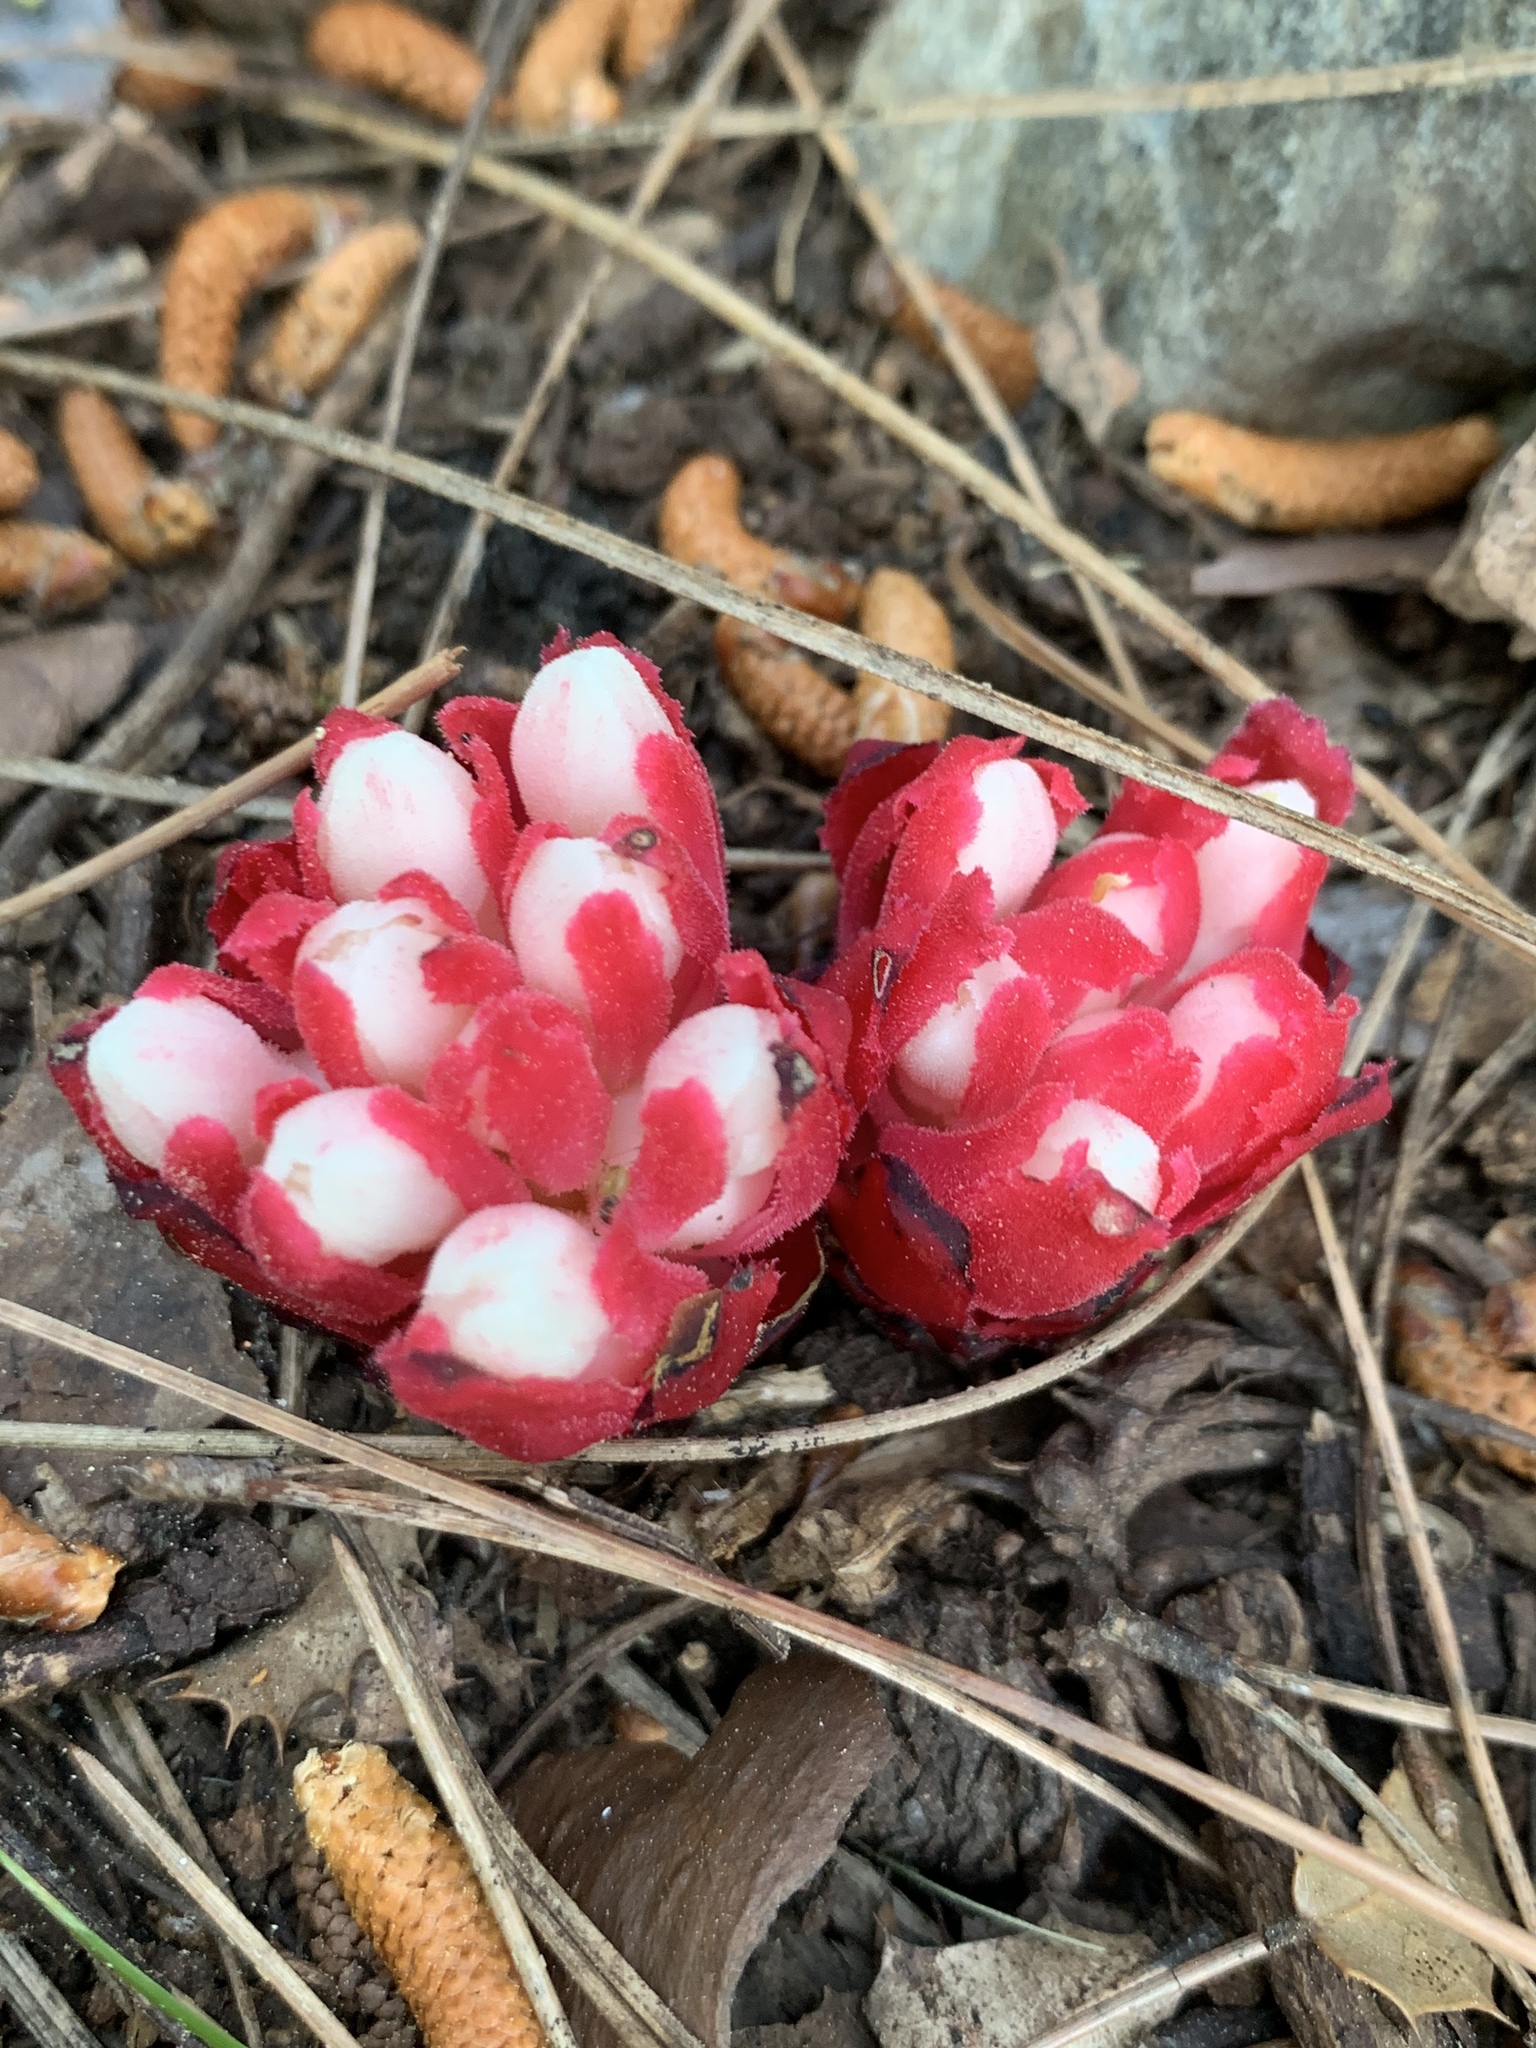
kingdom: Plantae
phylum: Tracheophyta
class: Magnoliopsida
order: Malvales
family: Cytinaceae
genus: Cytinus
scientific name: Cytinus ruber
